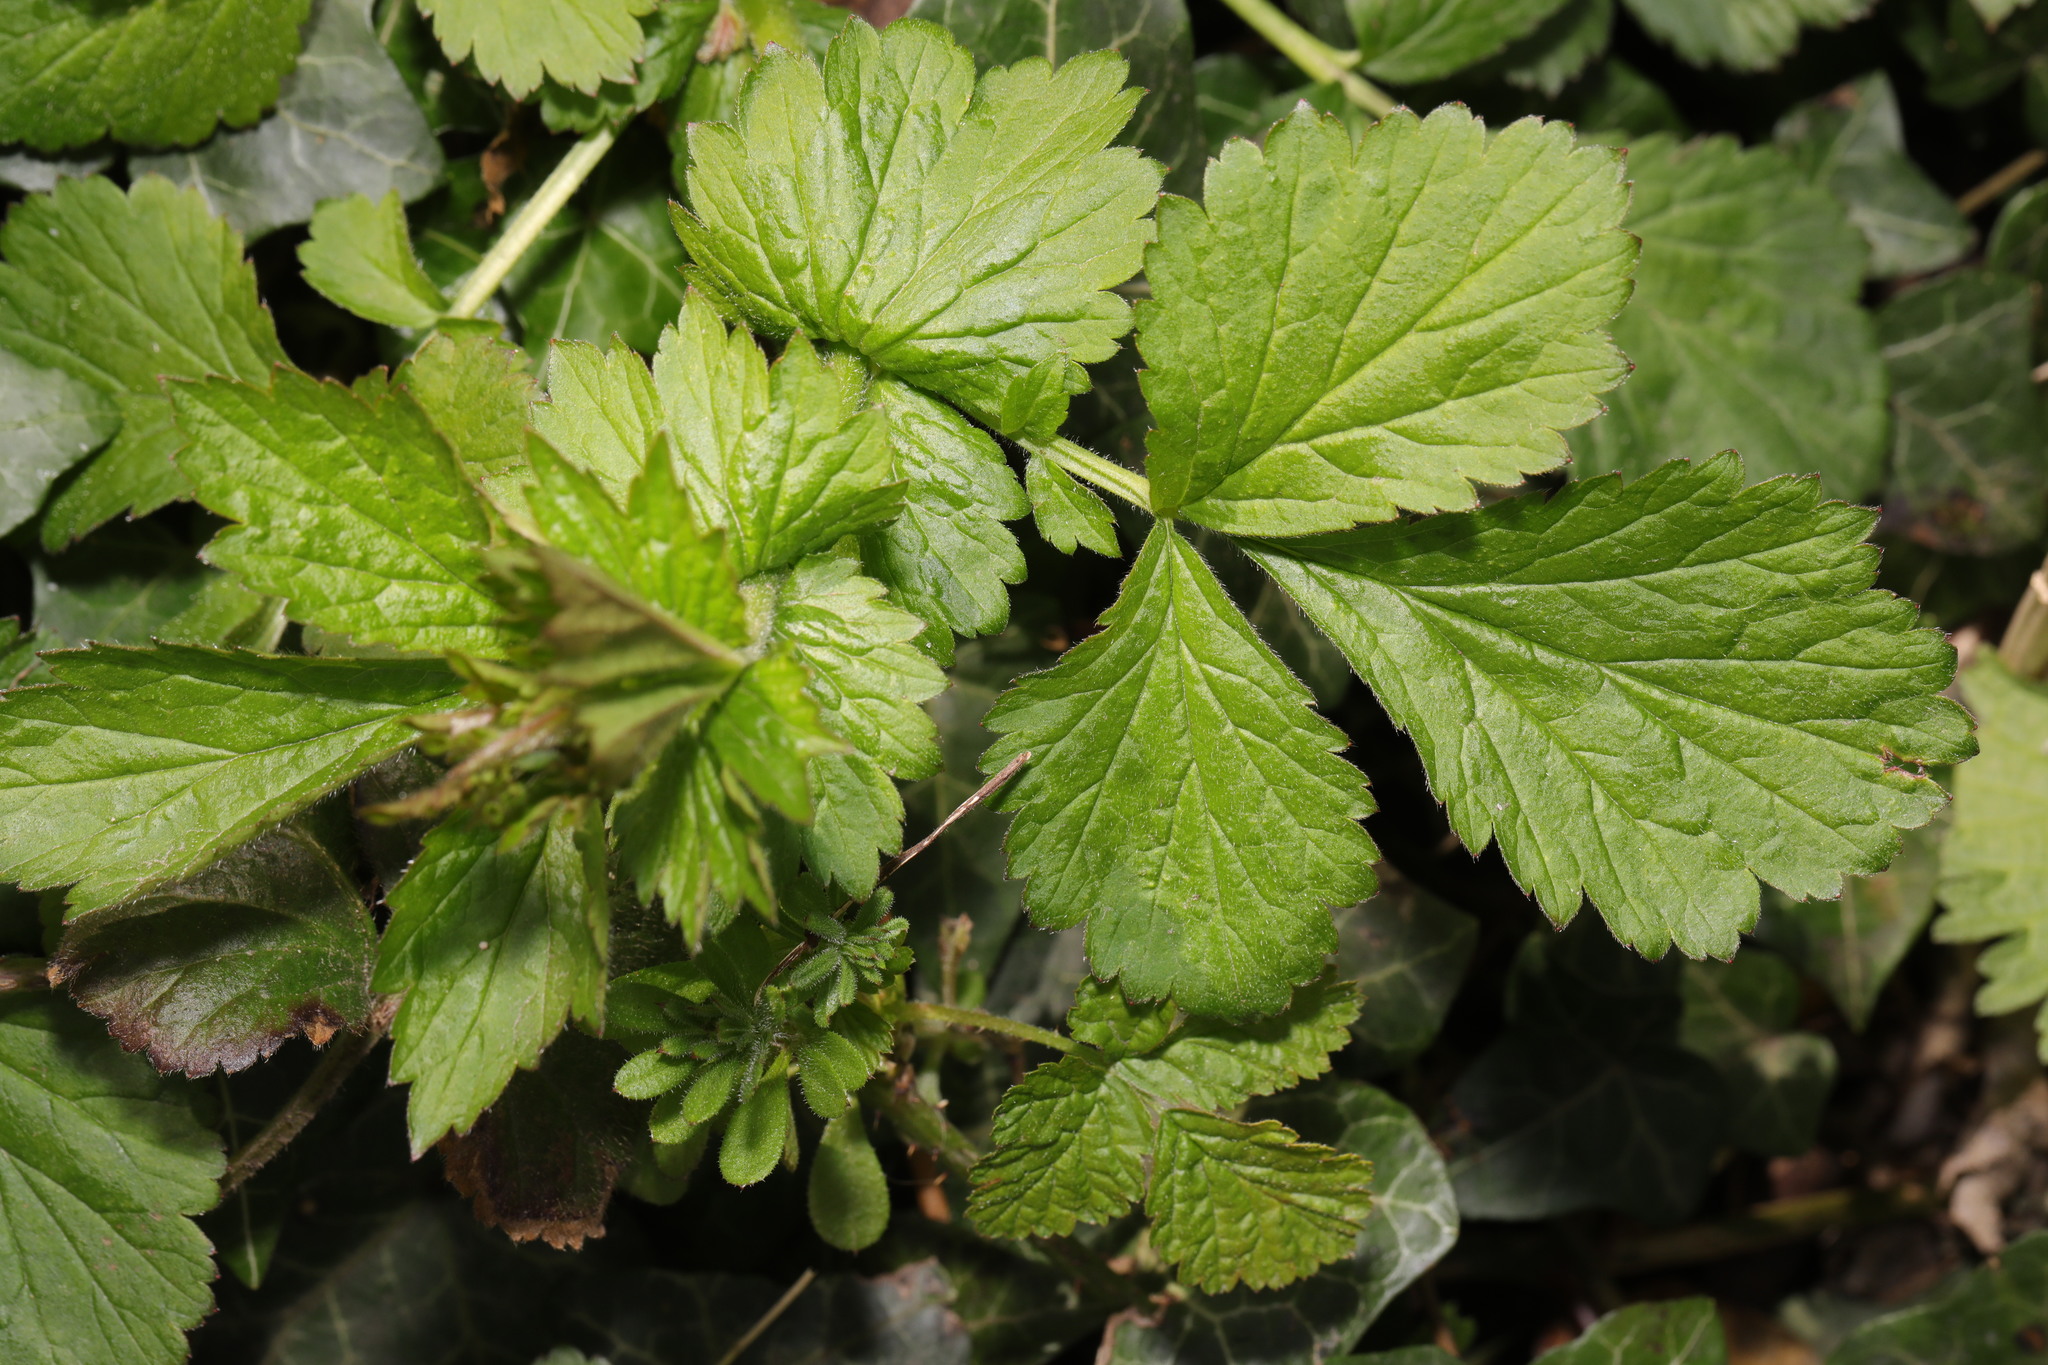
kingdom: Plantae
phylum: Tracheophyta
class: Magnoliopsida
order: Rosales
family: Rosaceae
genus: Geum
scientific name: Geum urbanum
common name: Wood avens
